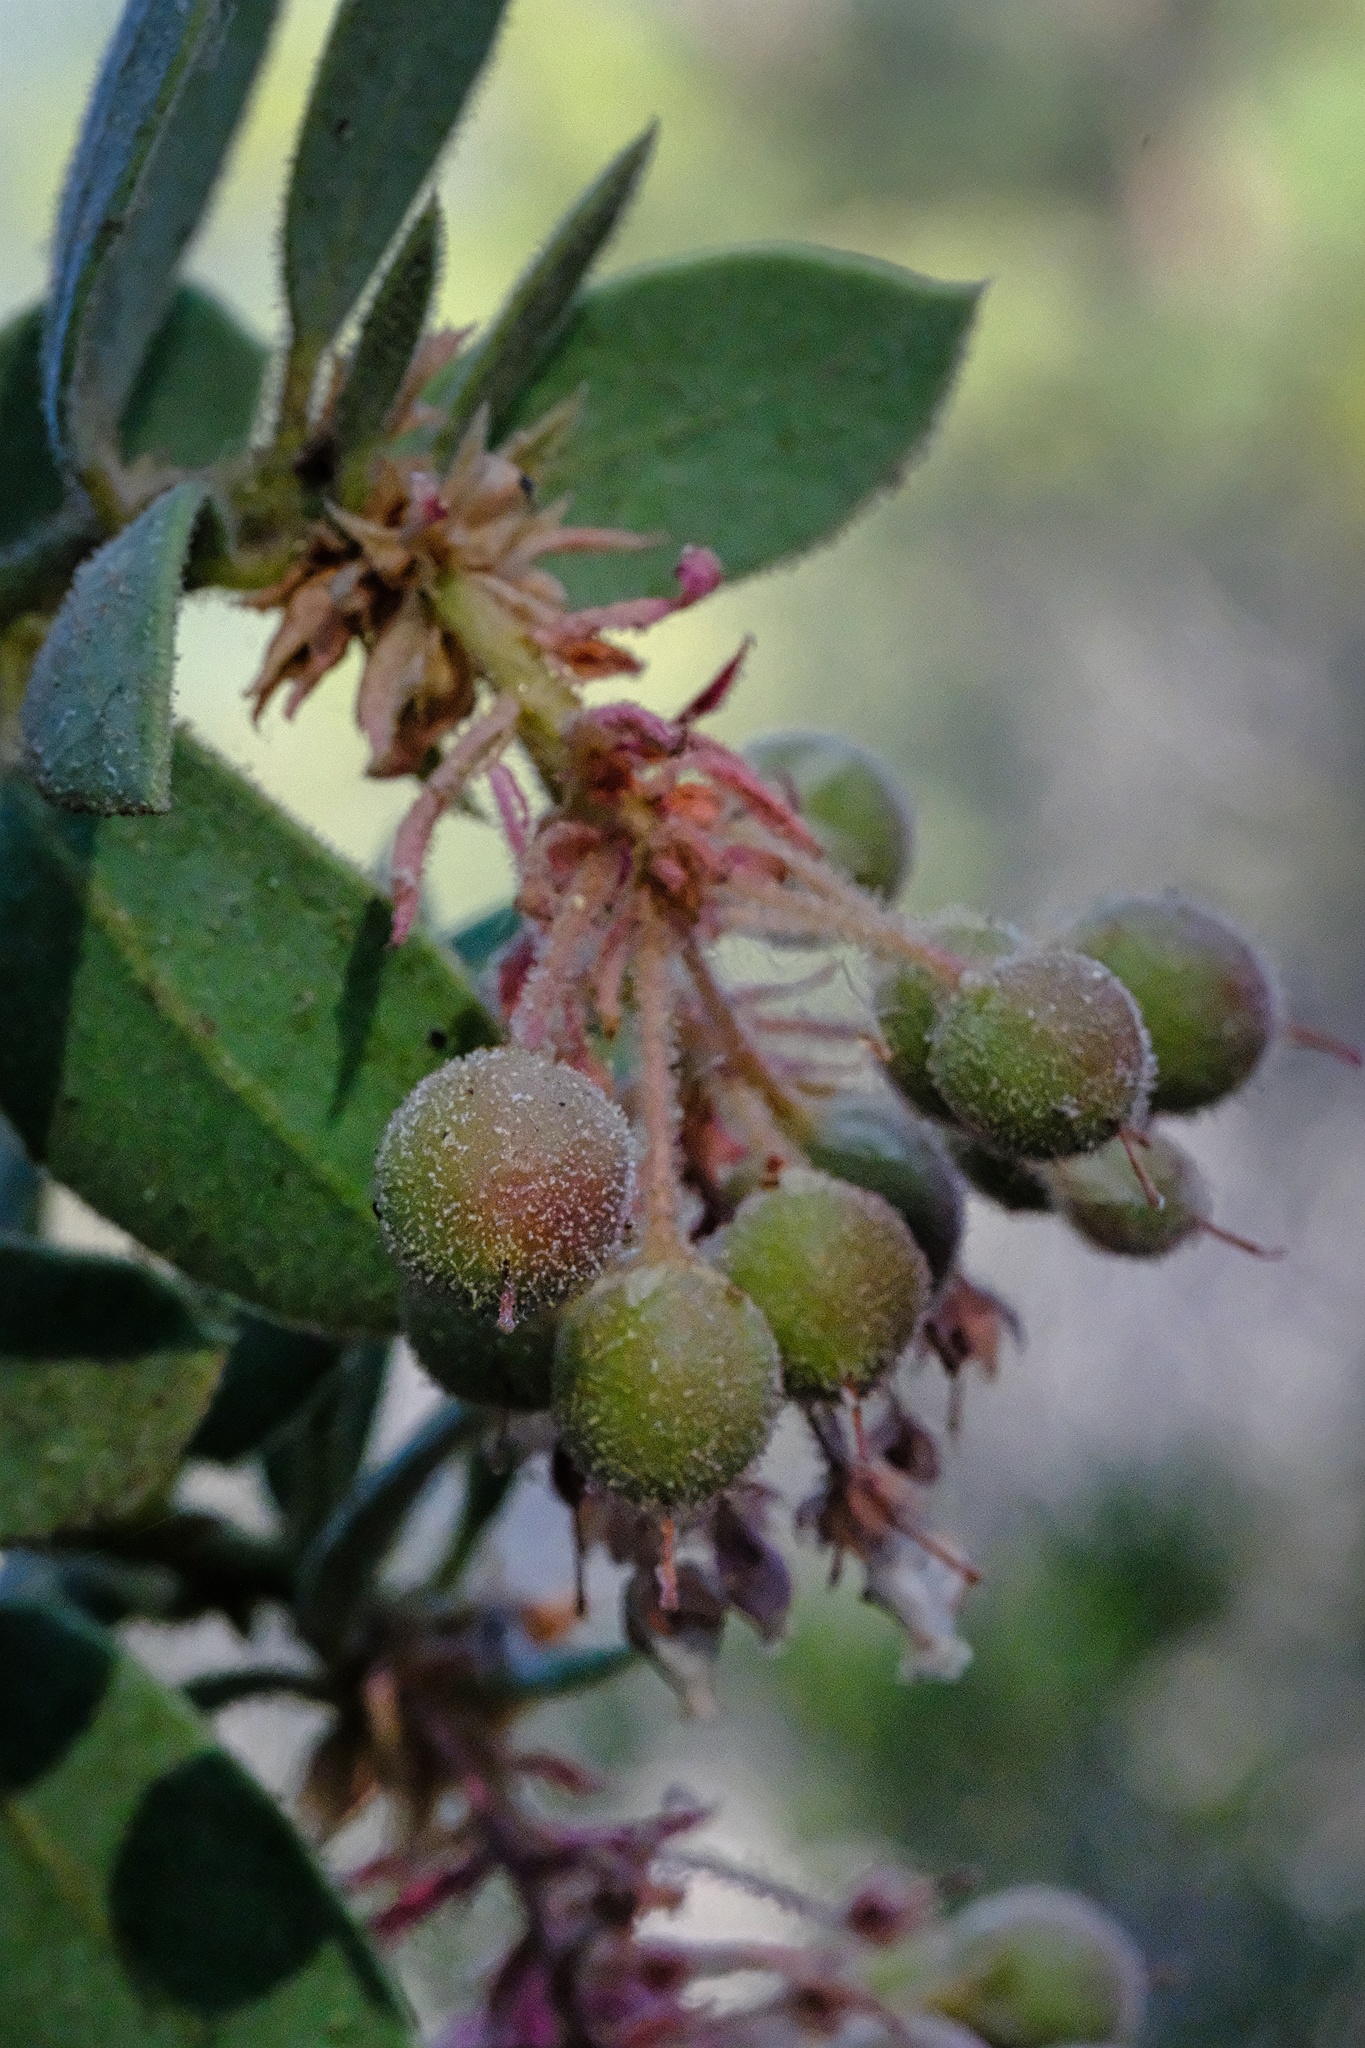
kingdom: Plantae
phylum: Tracheophyta
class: Magnoliopsida
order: Ericales
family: Ericaceae
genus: Arctostaphylos
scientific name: Arctostaphylos pringlei
